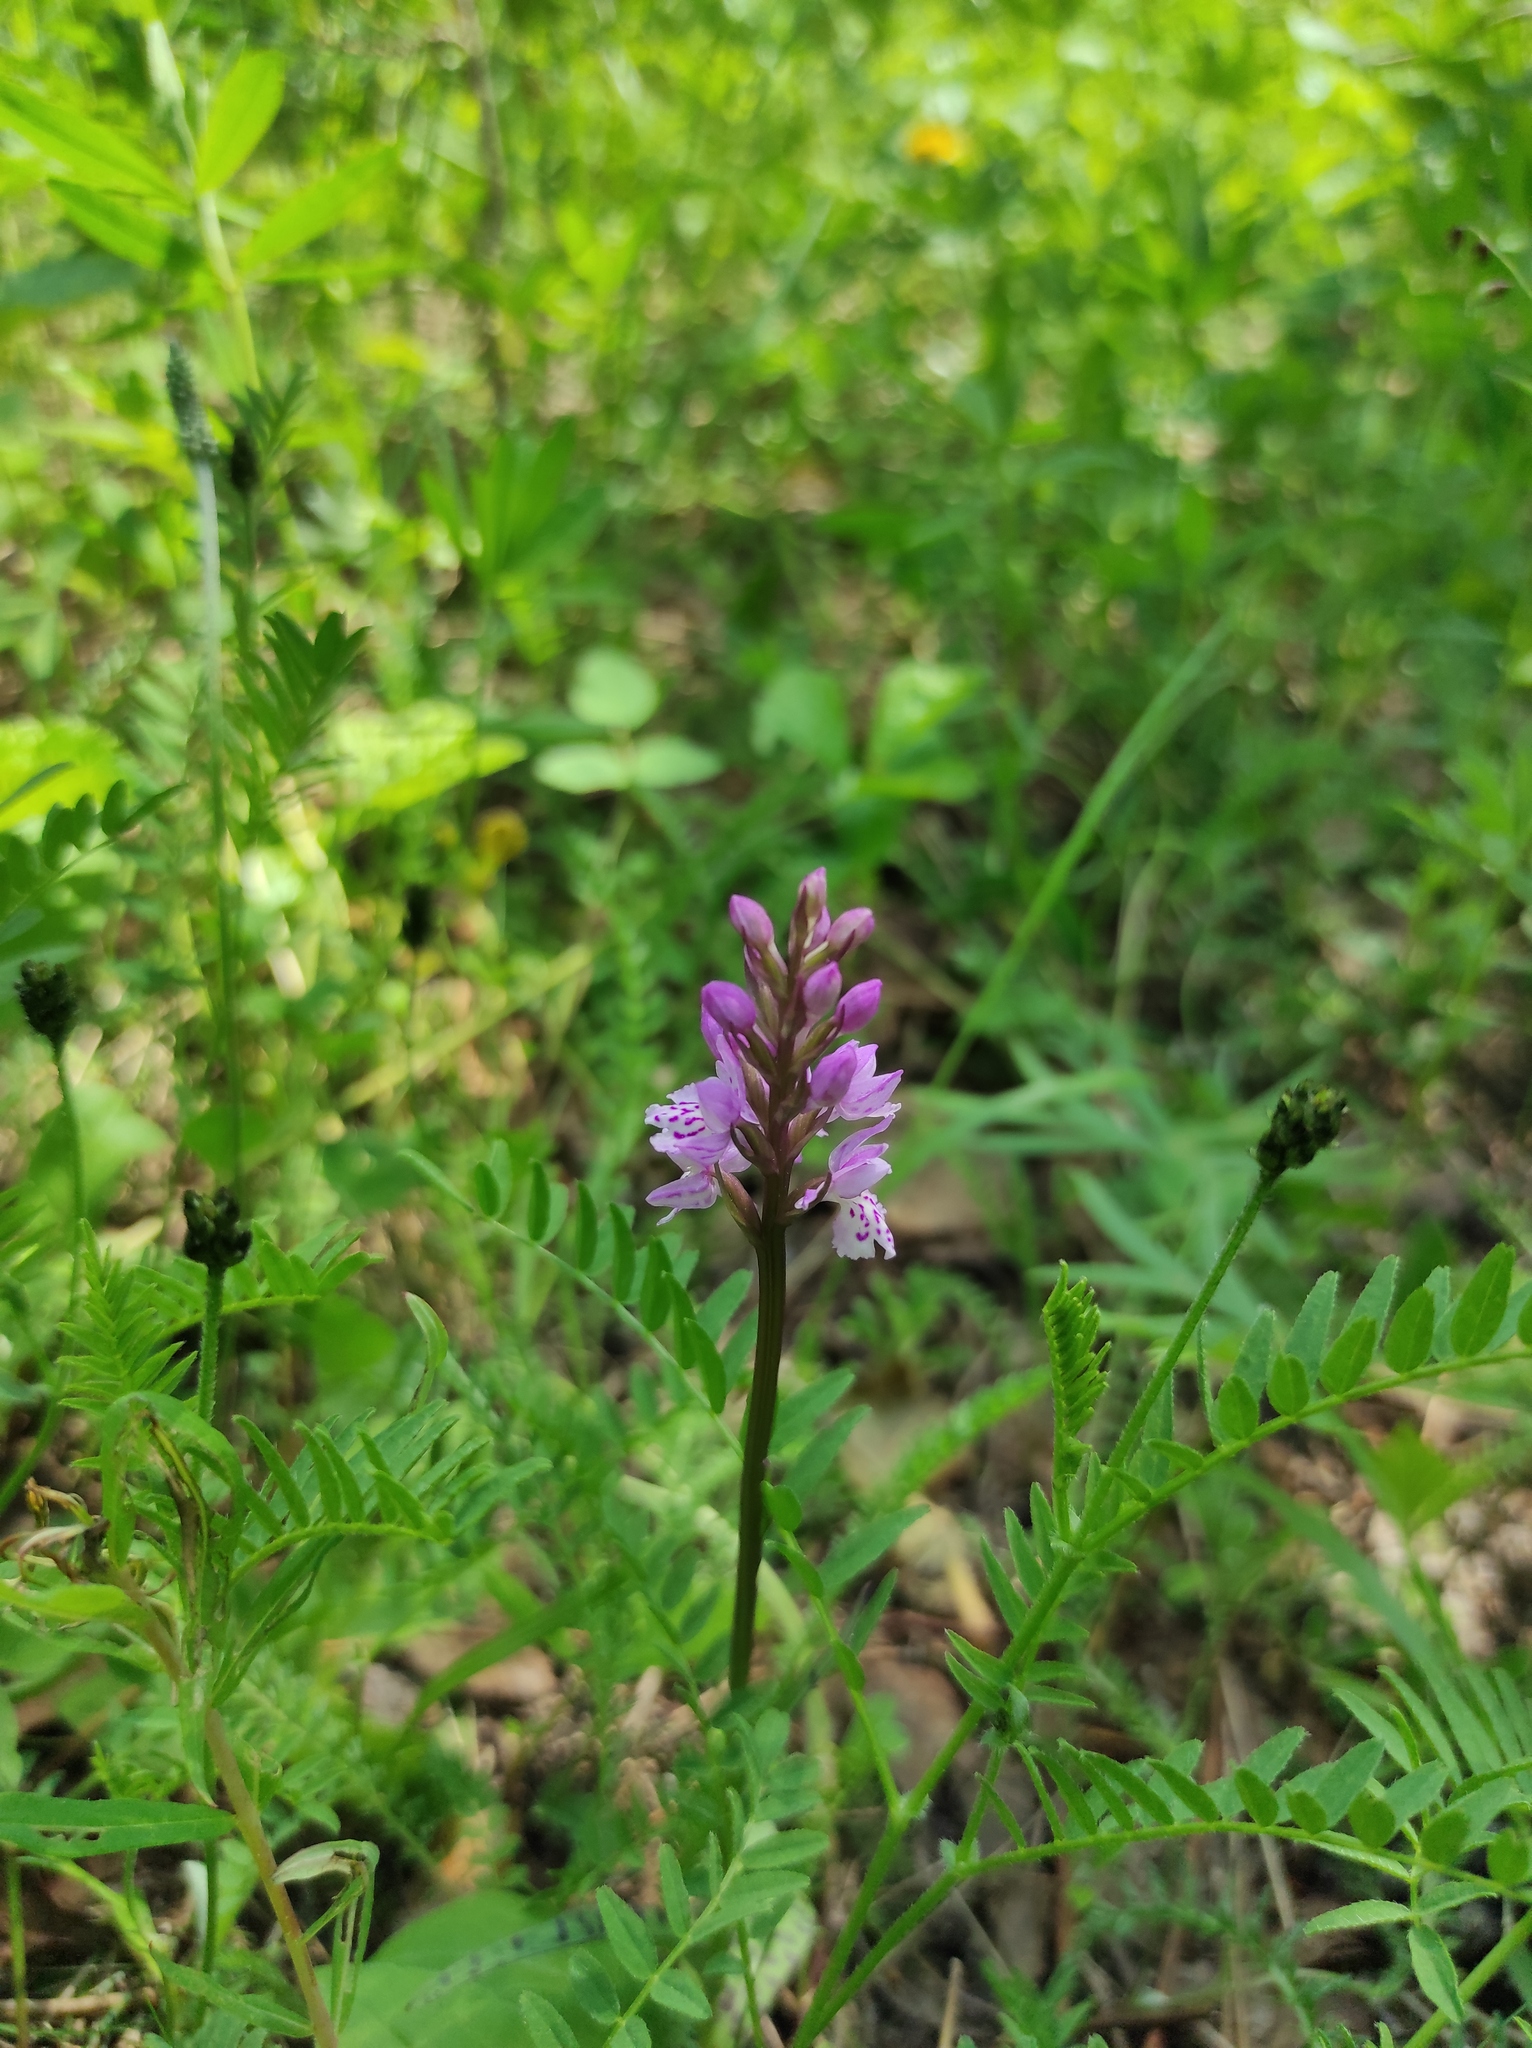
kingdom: Plantae
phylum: Tracheophyta
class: Liliopsida
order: Asparagales
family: Orchidaceae
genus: Dactylorhiza
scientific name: Dactylorhiza maculata
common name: Heath spotted-orchid
